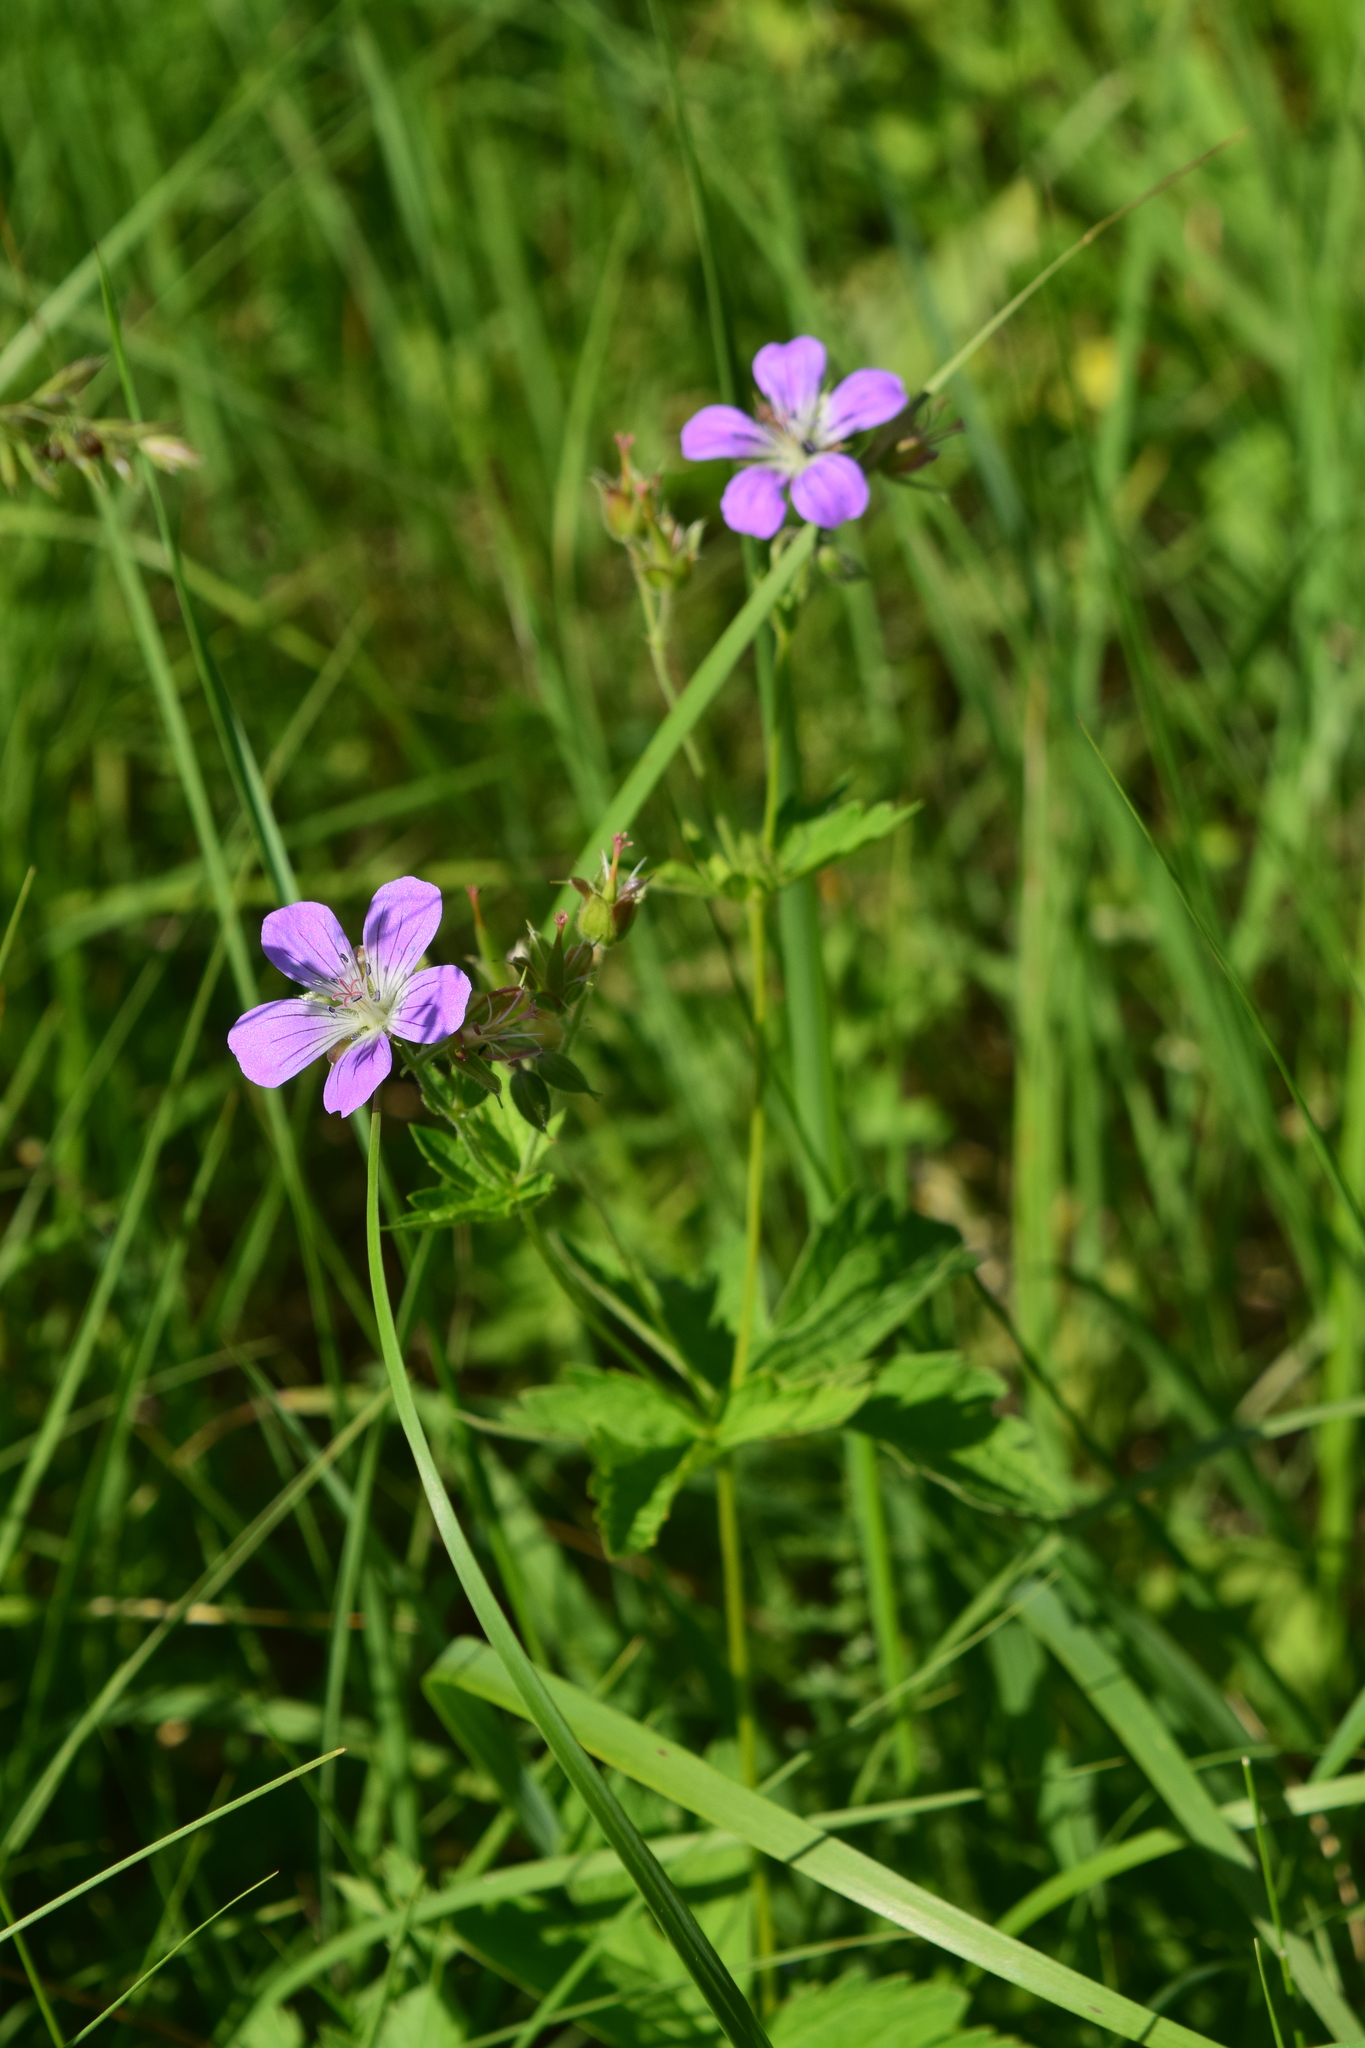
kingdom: Plantae
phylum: Tracheophyta
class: Magnoliopsida
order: Geraniales
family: Geraniaceae
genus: Geranium
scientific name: Geranium sylvaticum
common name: Wood crane's-bill
